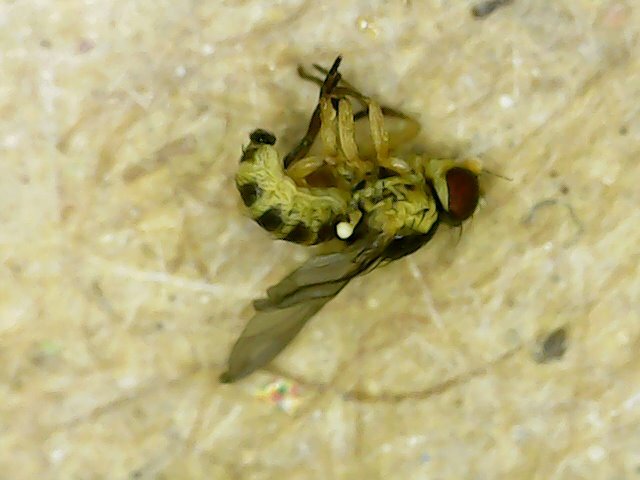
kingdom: Animalia
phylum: Arthropoda
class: Insecta
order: Diptera
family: Agromyzidae
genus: Liriomyza
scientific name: Liriomyza bryoniae
